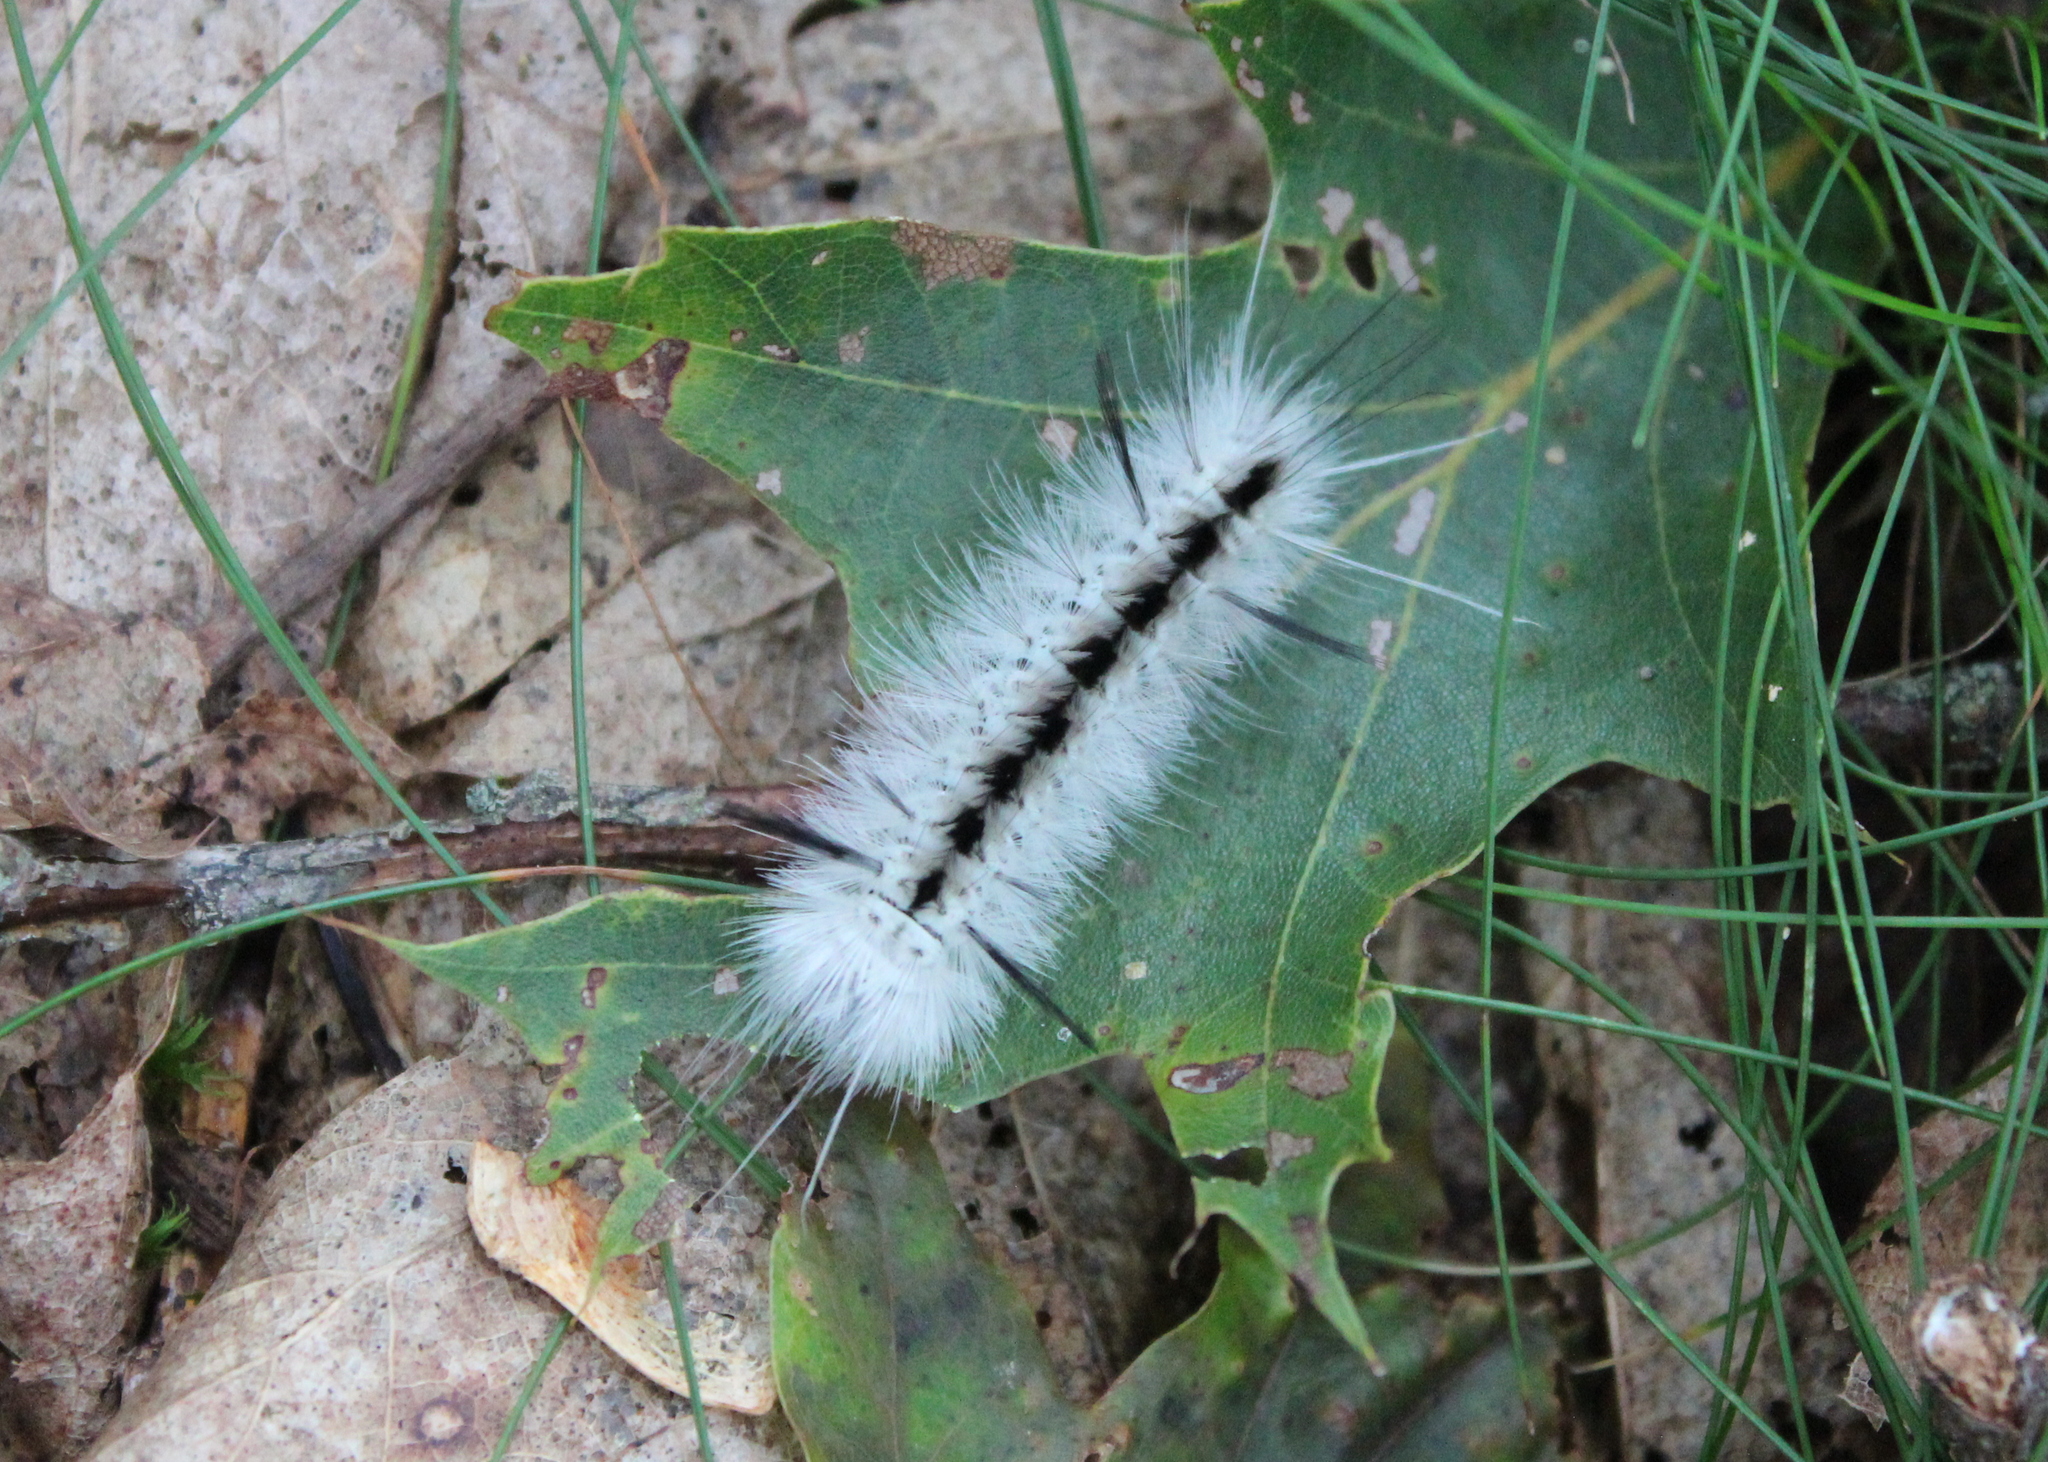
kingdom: Animalia
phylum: Arthropoda
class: Insecta
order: Lepidoptera
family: Erebidae
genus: Lophocampa
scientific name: Lophocampa caryae
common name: Hickory tussock moth
